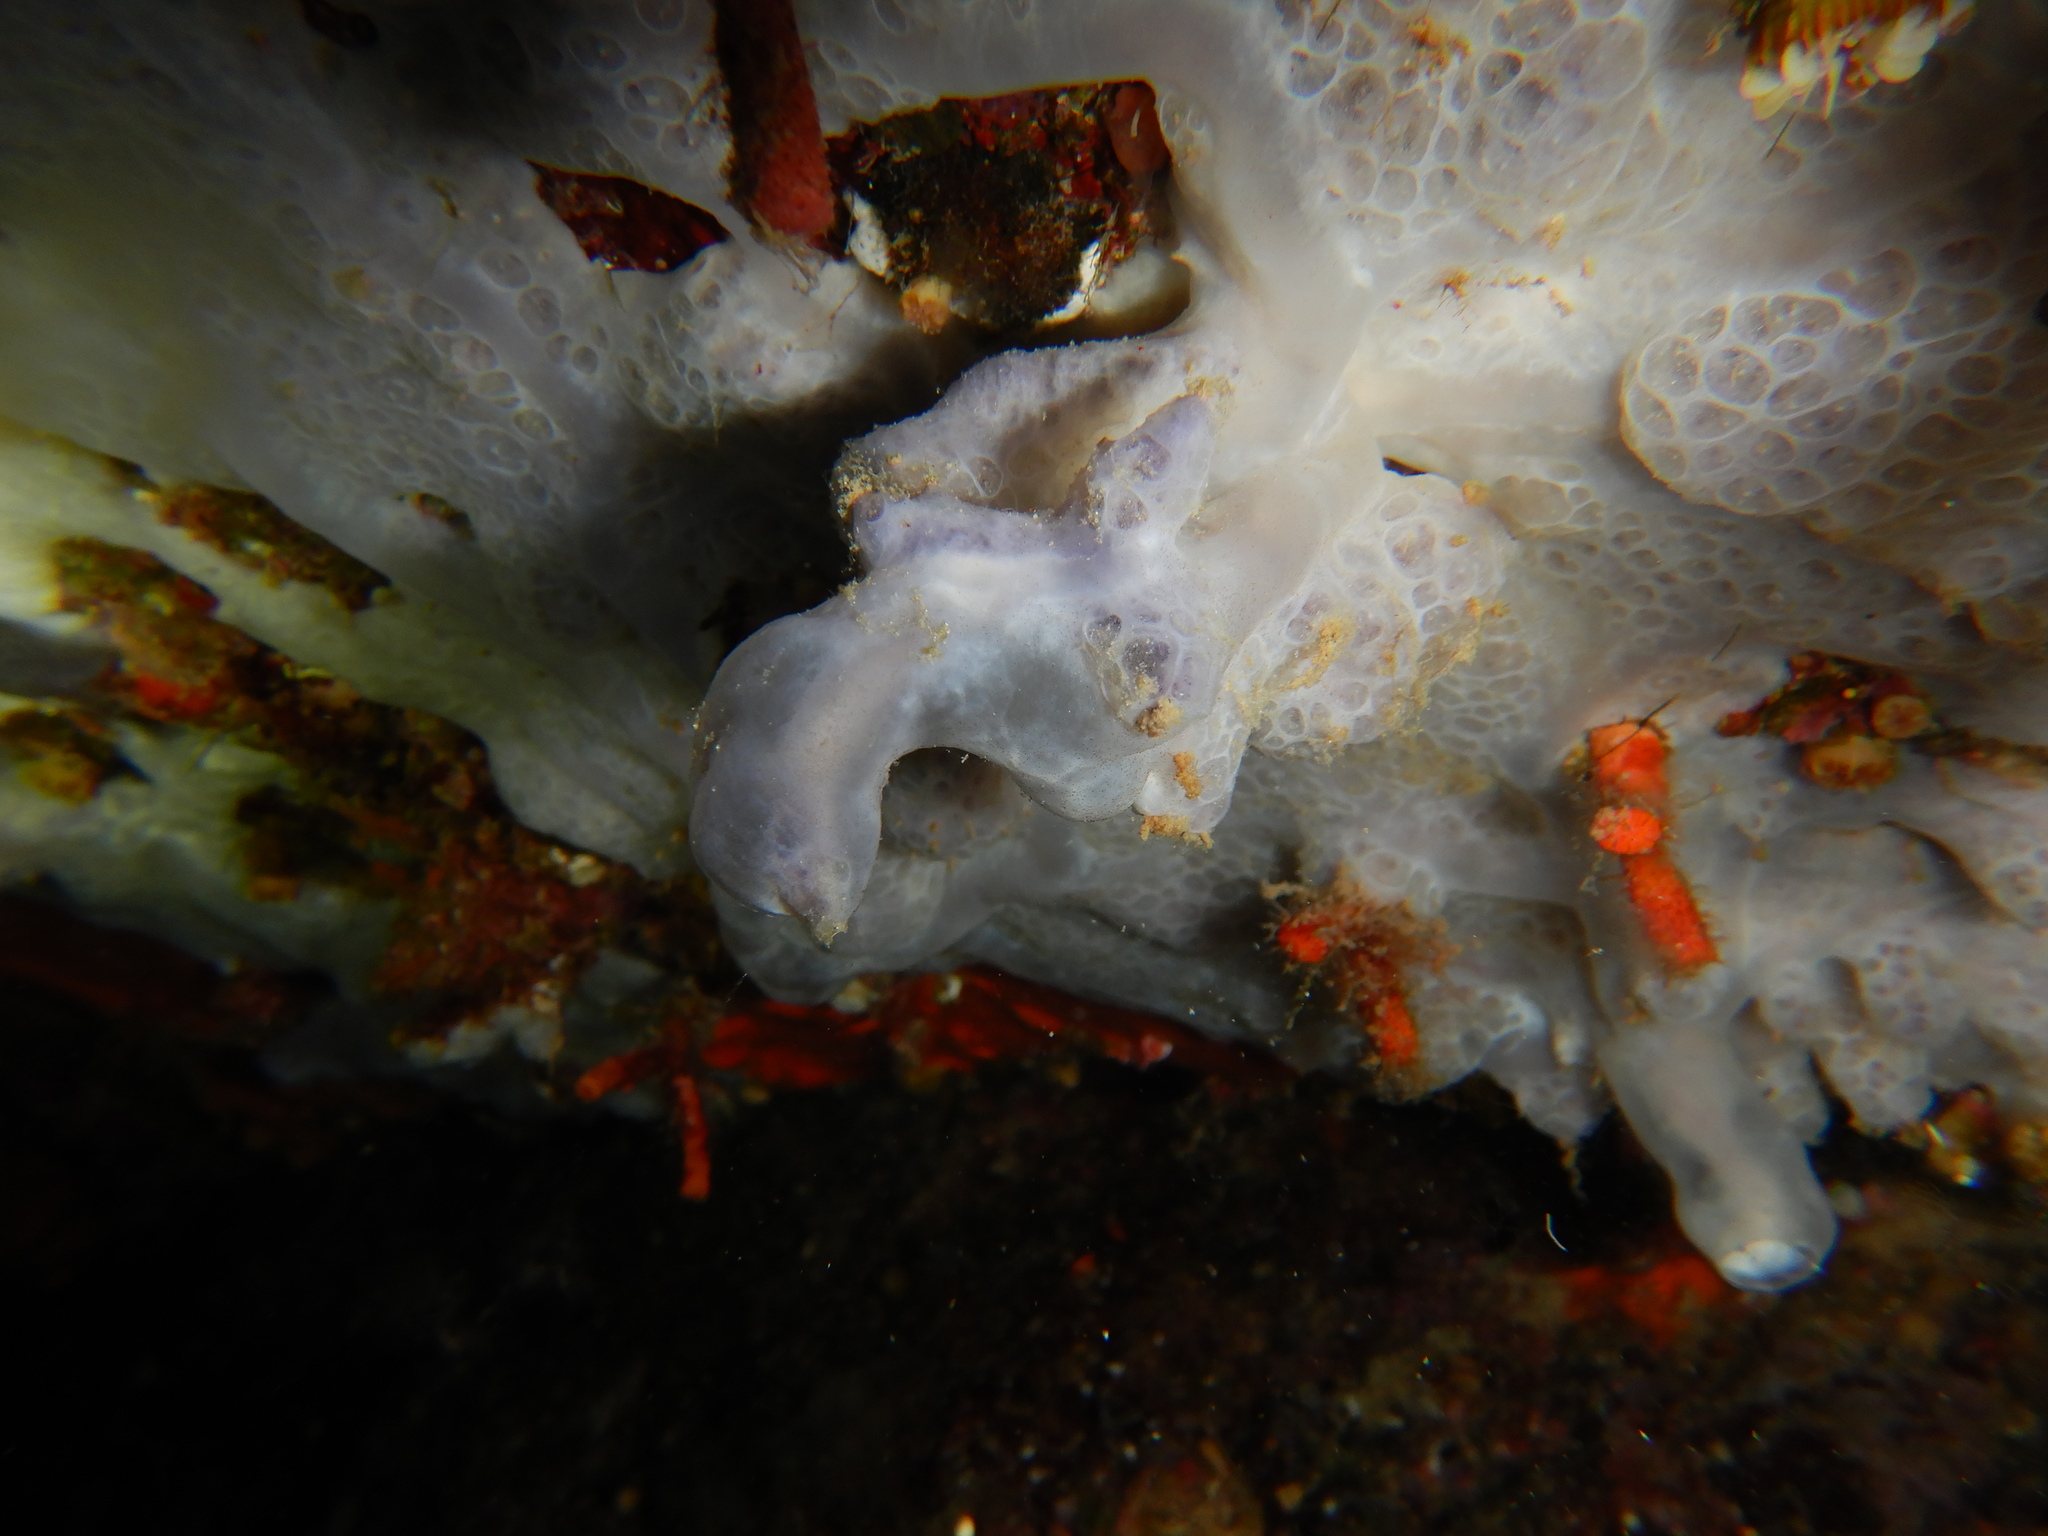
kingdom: Animalia
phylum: Porifera
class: Demospongiae
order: Poecilosclerida
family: Hymedesmiidae
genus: Phorbas
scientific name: Phorbas tenacior
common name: Bluish encrusting sponge
